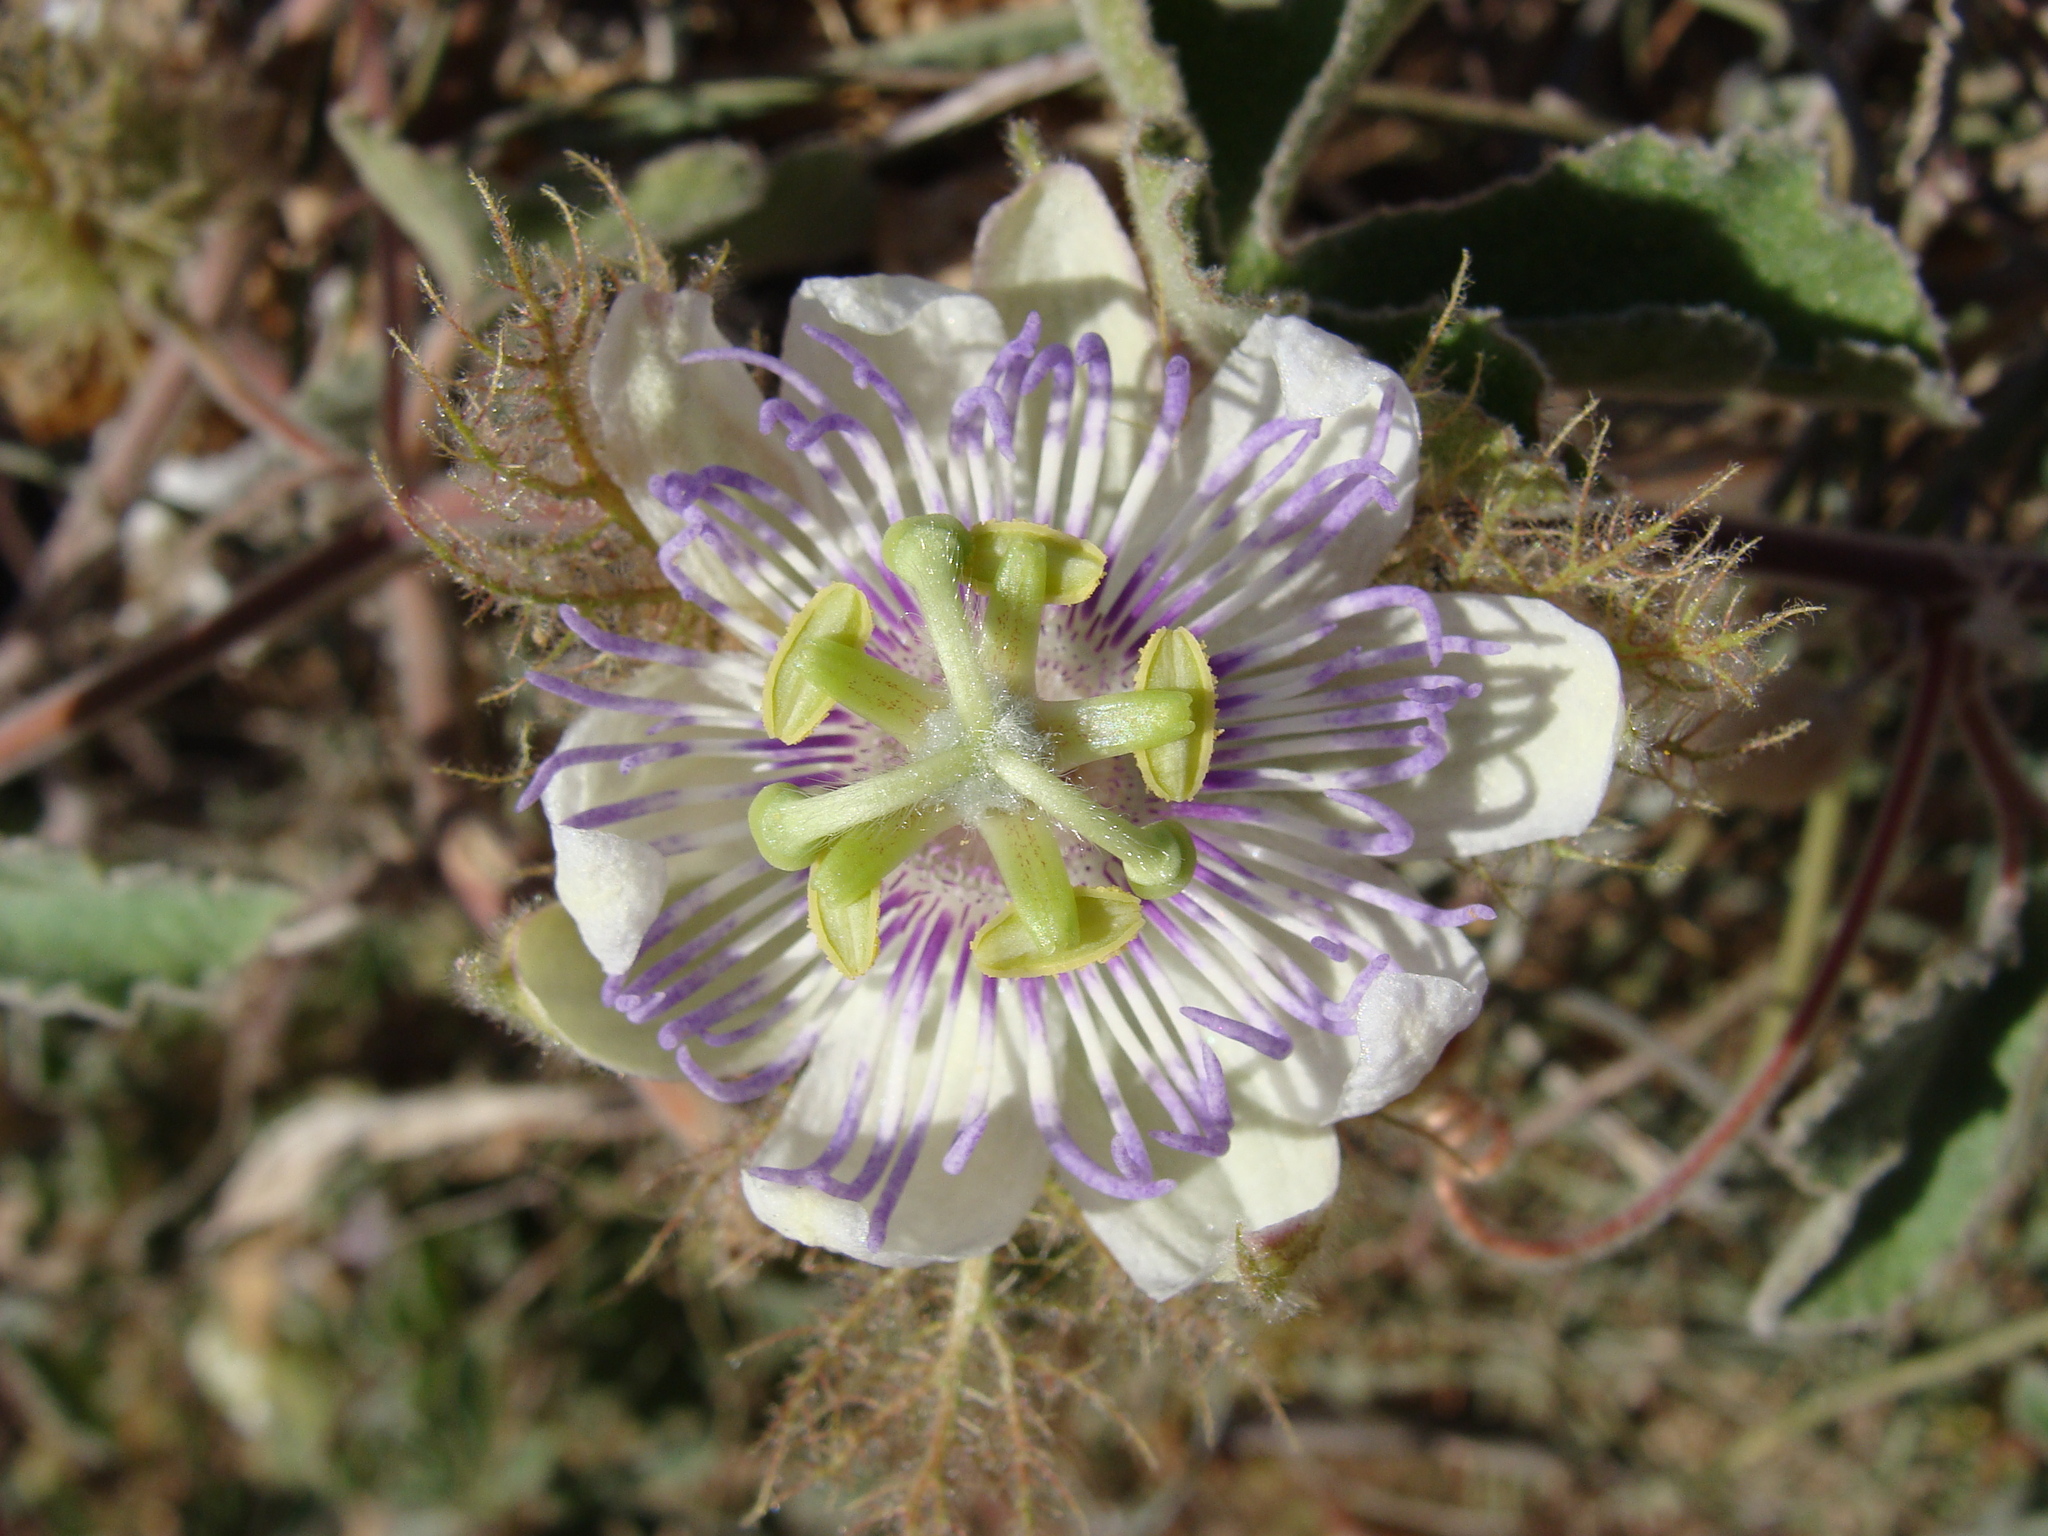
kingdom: Plantae
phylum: Tracheophyta
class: Magnoliopsida
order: Malpighiales
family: Passifloraceae
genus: Passiflora
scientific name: Passiflora pentaschista
